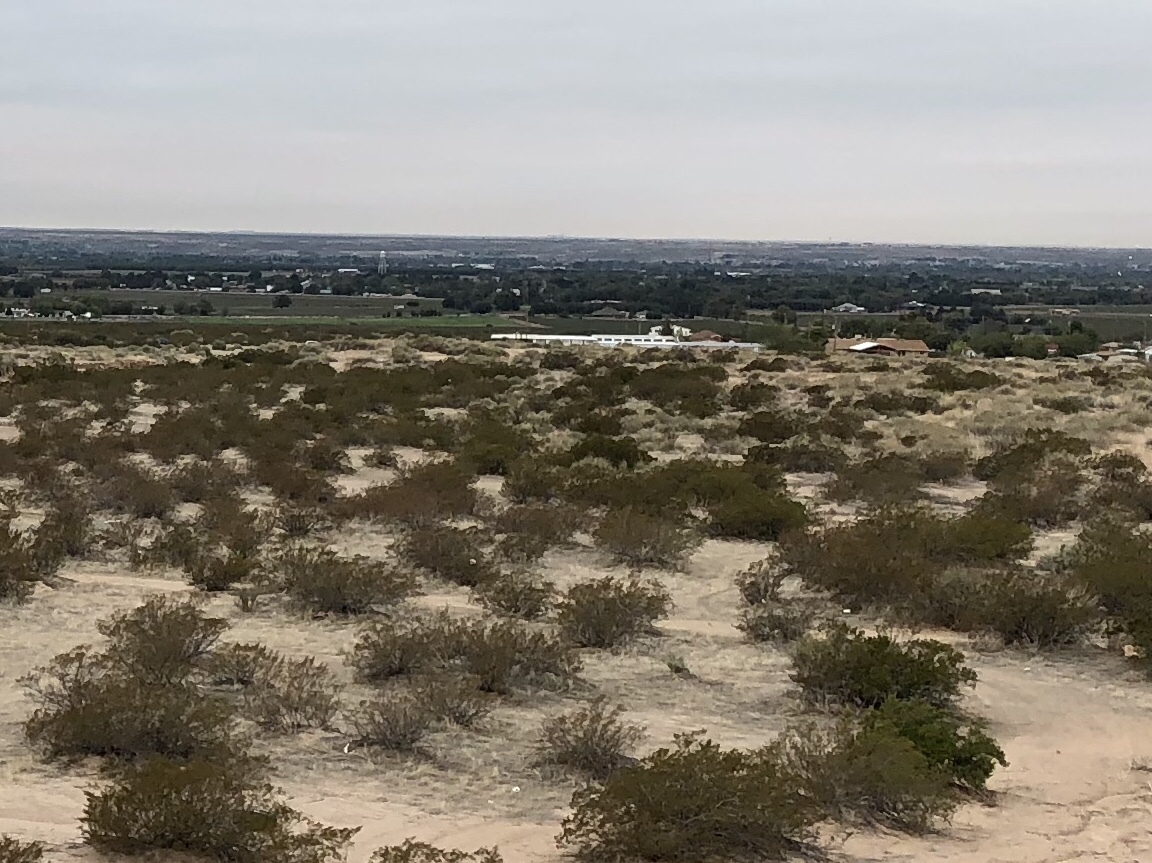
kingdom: Plantae
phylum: Tracheophyta
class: Magnoliopsida
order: Zygophyllales
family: Zygophyllaceae
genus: Larrea
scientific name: Larrea tridentata
